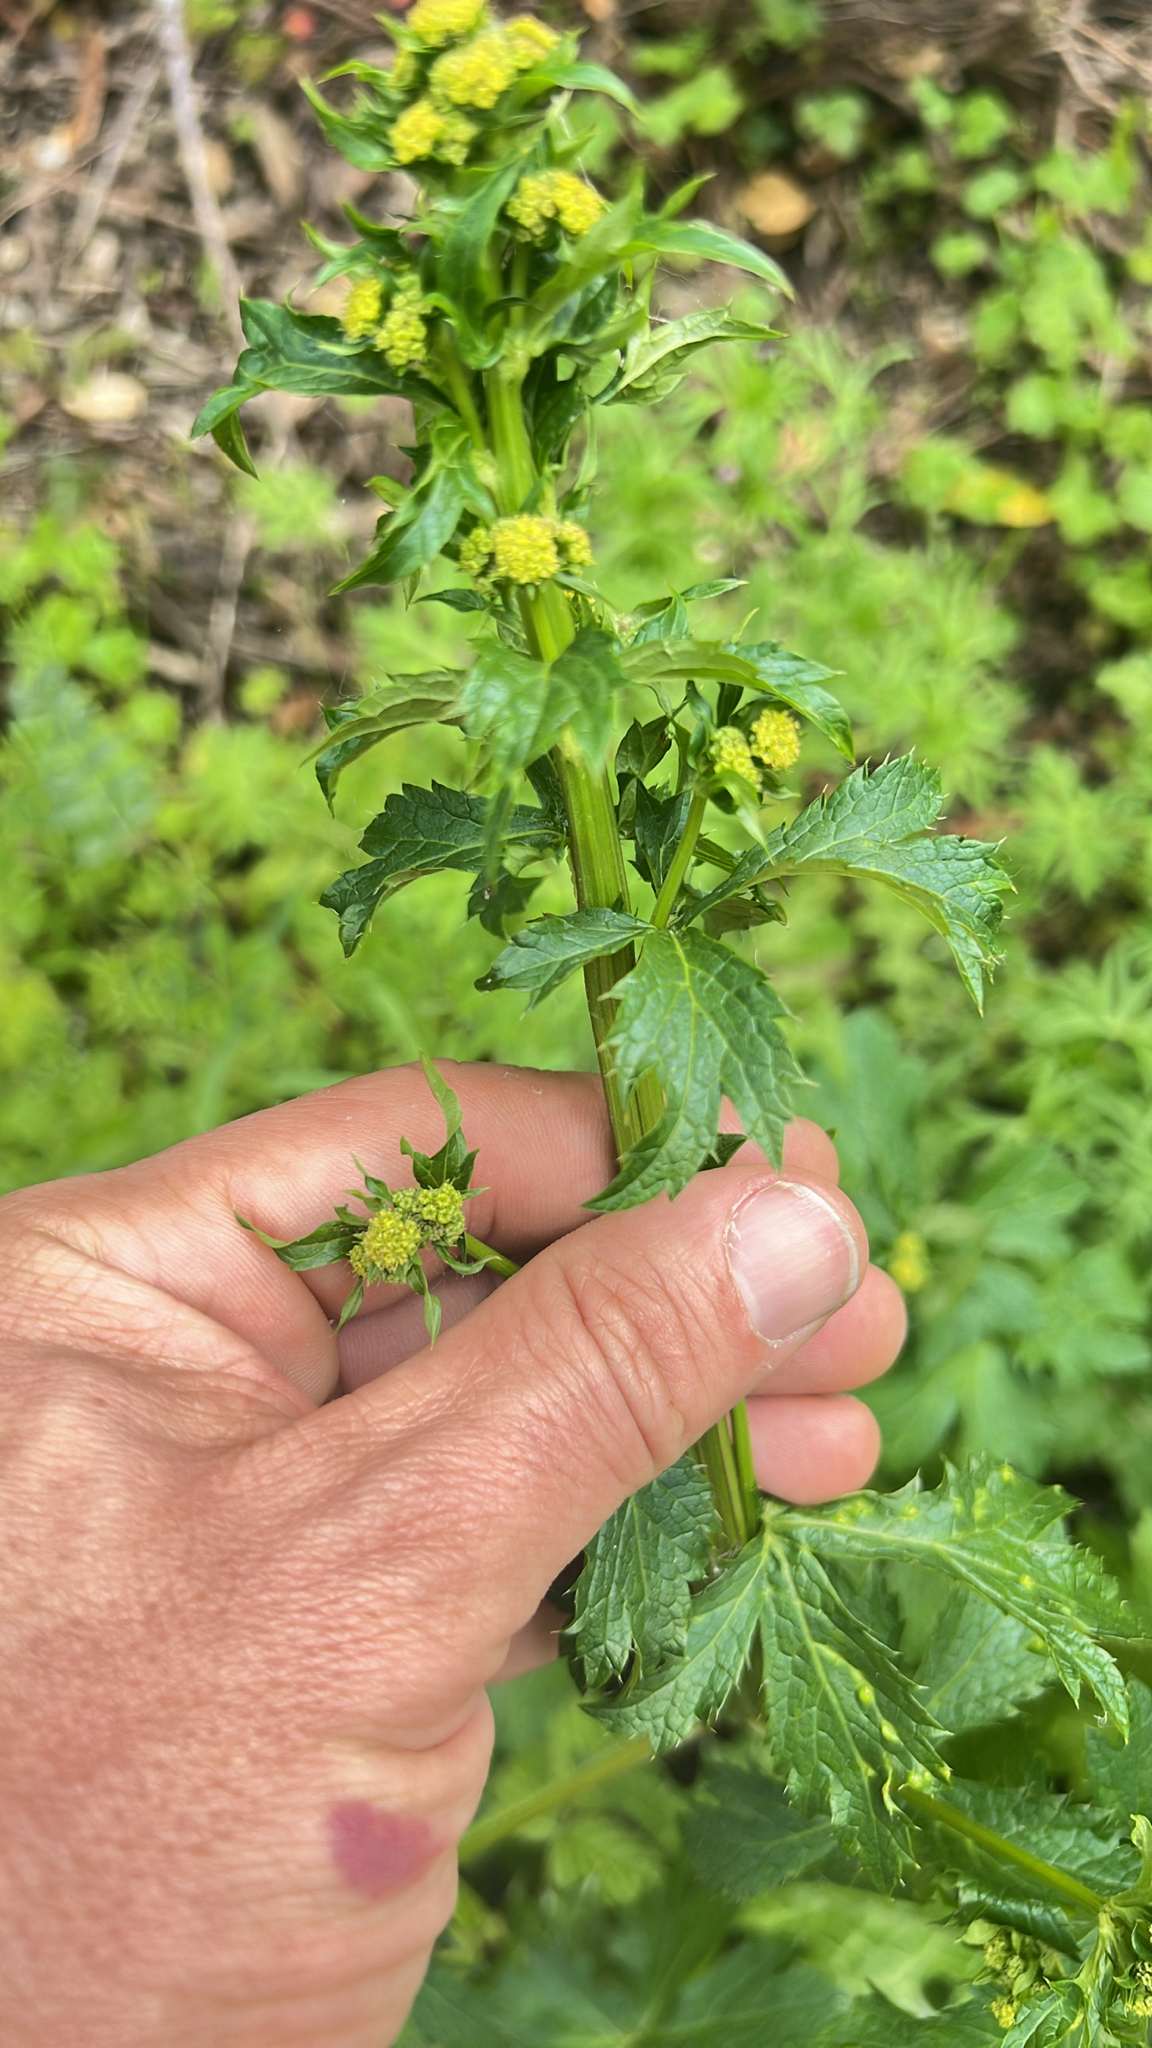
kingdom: Plantae
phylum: Tracheophyta
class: Magnoliopsida
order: Apiales
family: Apiaceae
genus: Sanicula
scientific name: Sanicula crassicaulis
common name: Western snakeroot
